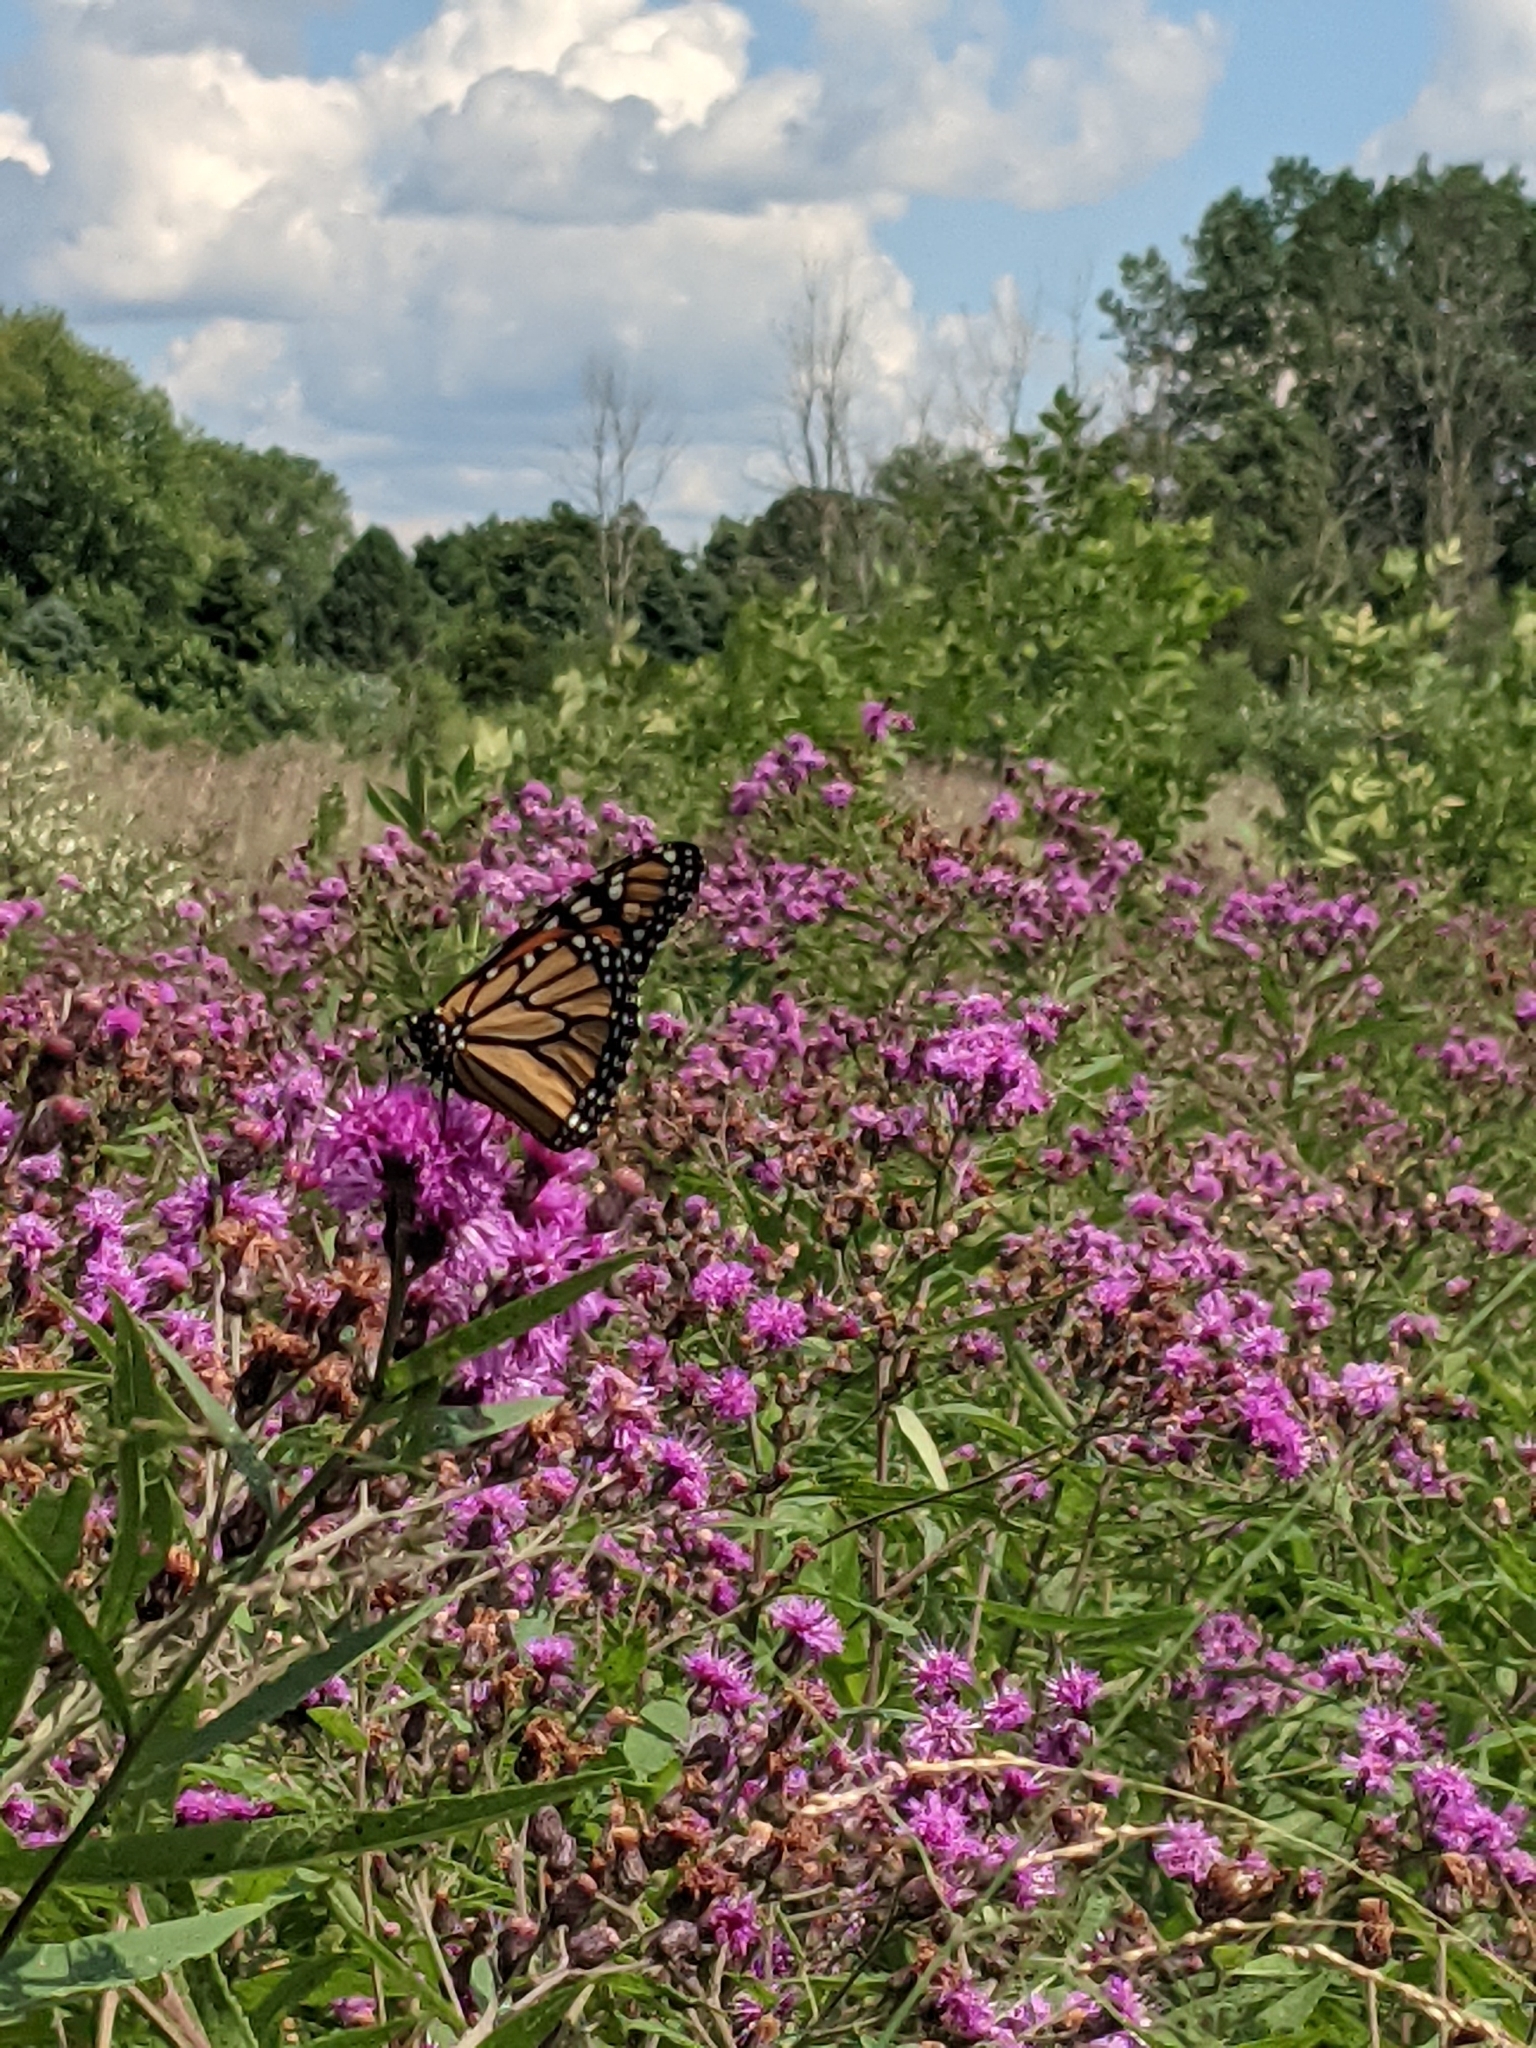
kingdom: Animalia
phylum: Arthropoda
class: Insecta
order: Lepidoptera
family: Nymphalidae
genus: Danaus
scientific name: Danaus plexippus
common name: Monarch
